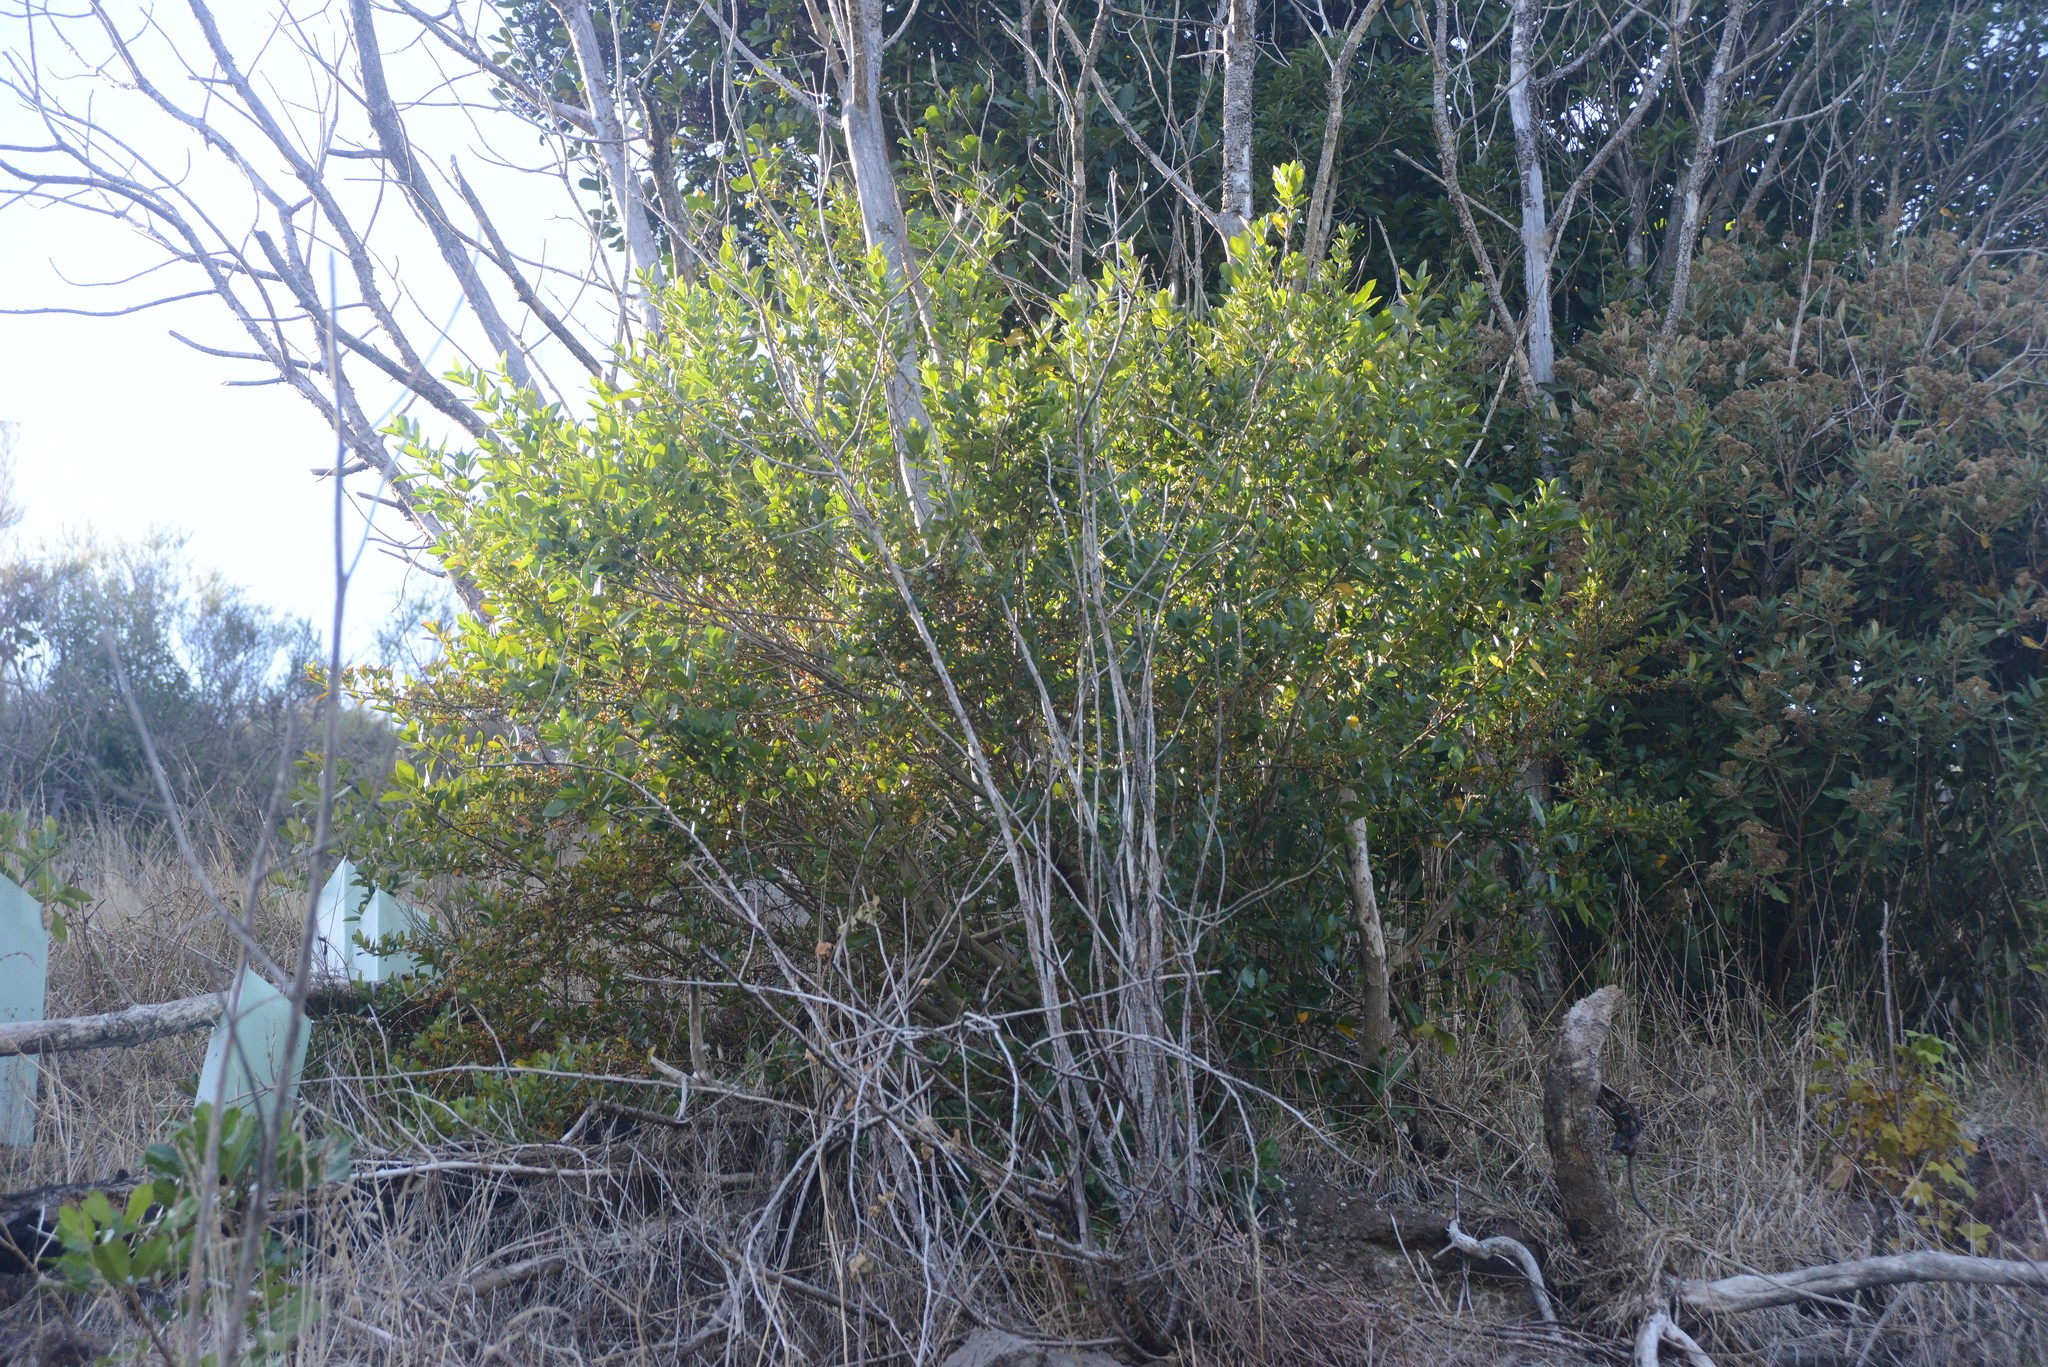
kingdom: Plantae
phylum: Tracheophyta
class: Magnoliopsida
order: Gentianales
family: Rubiaceae
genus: Coprosma
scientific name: Coprosma robusta
